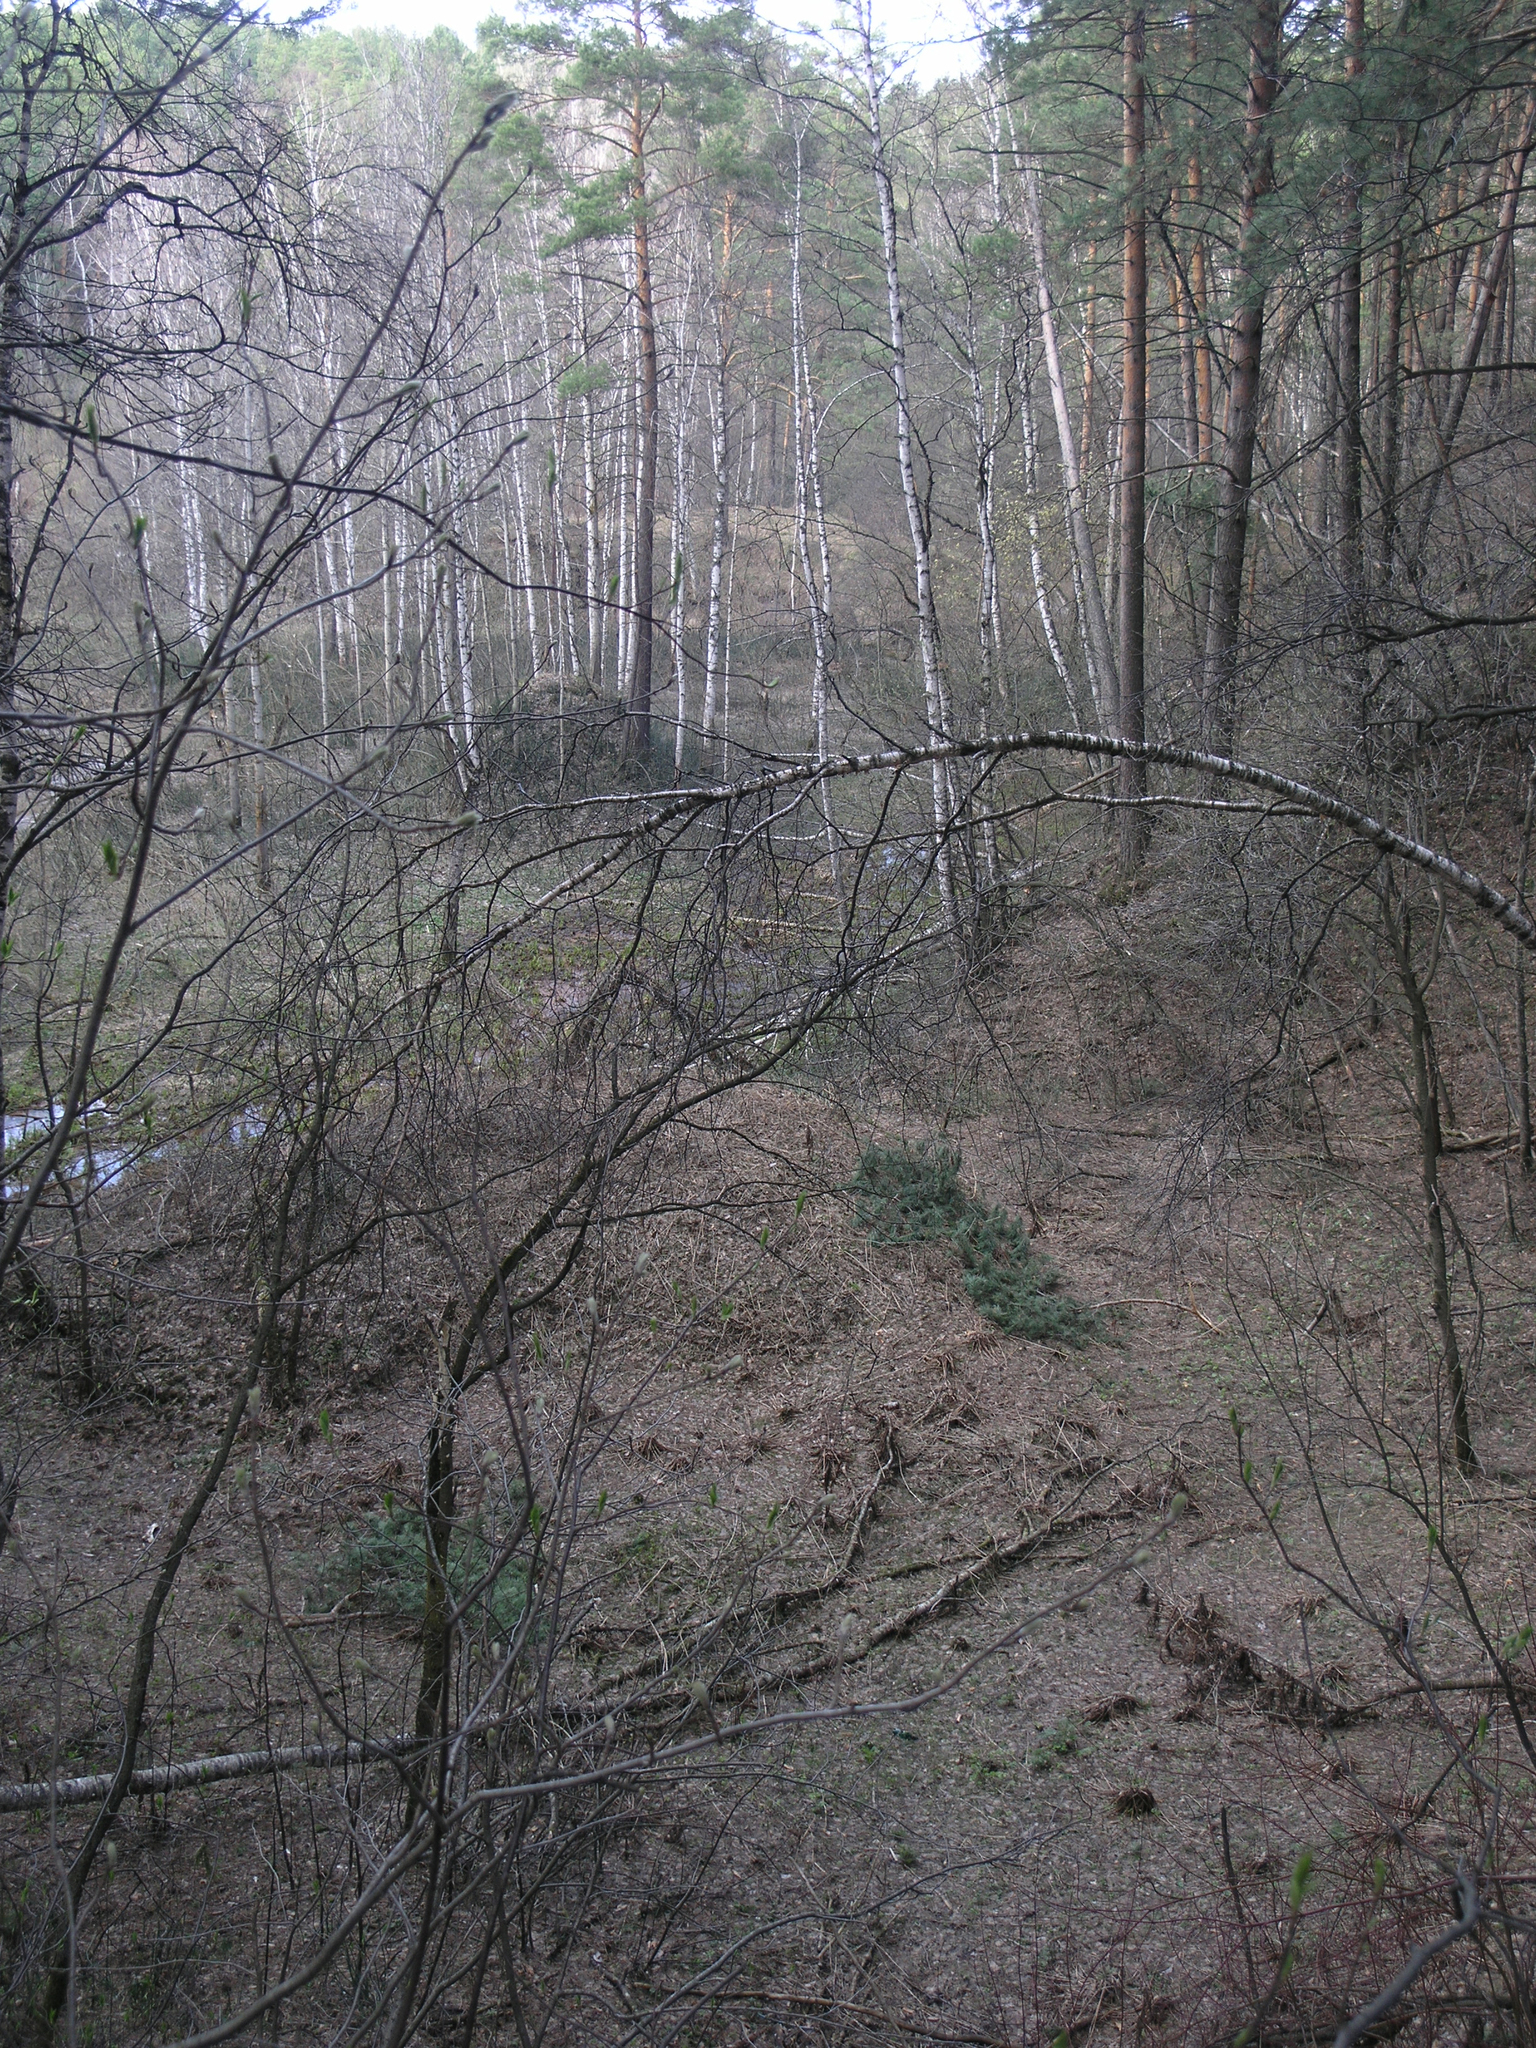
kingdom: Plantae
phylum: Tracheophyta
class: Magnoliopsida
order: Fagales
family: Betulaceae
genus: Betula
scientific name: Betula pendula
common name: Silver birch
